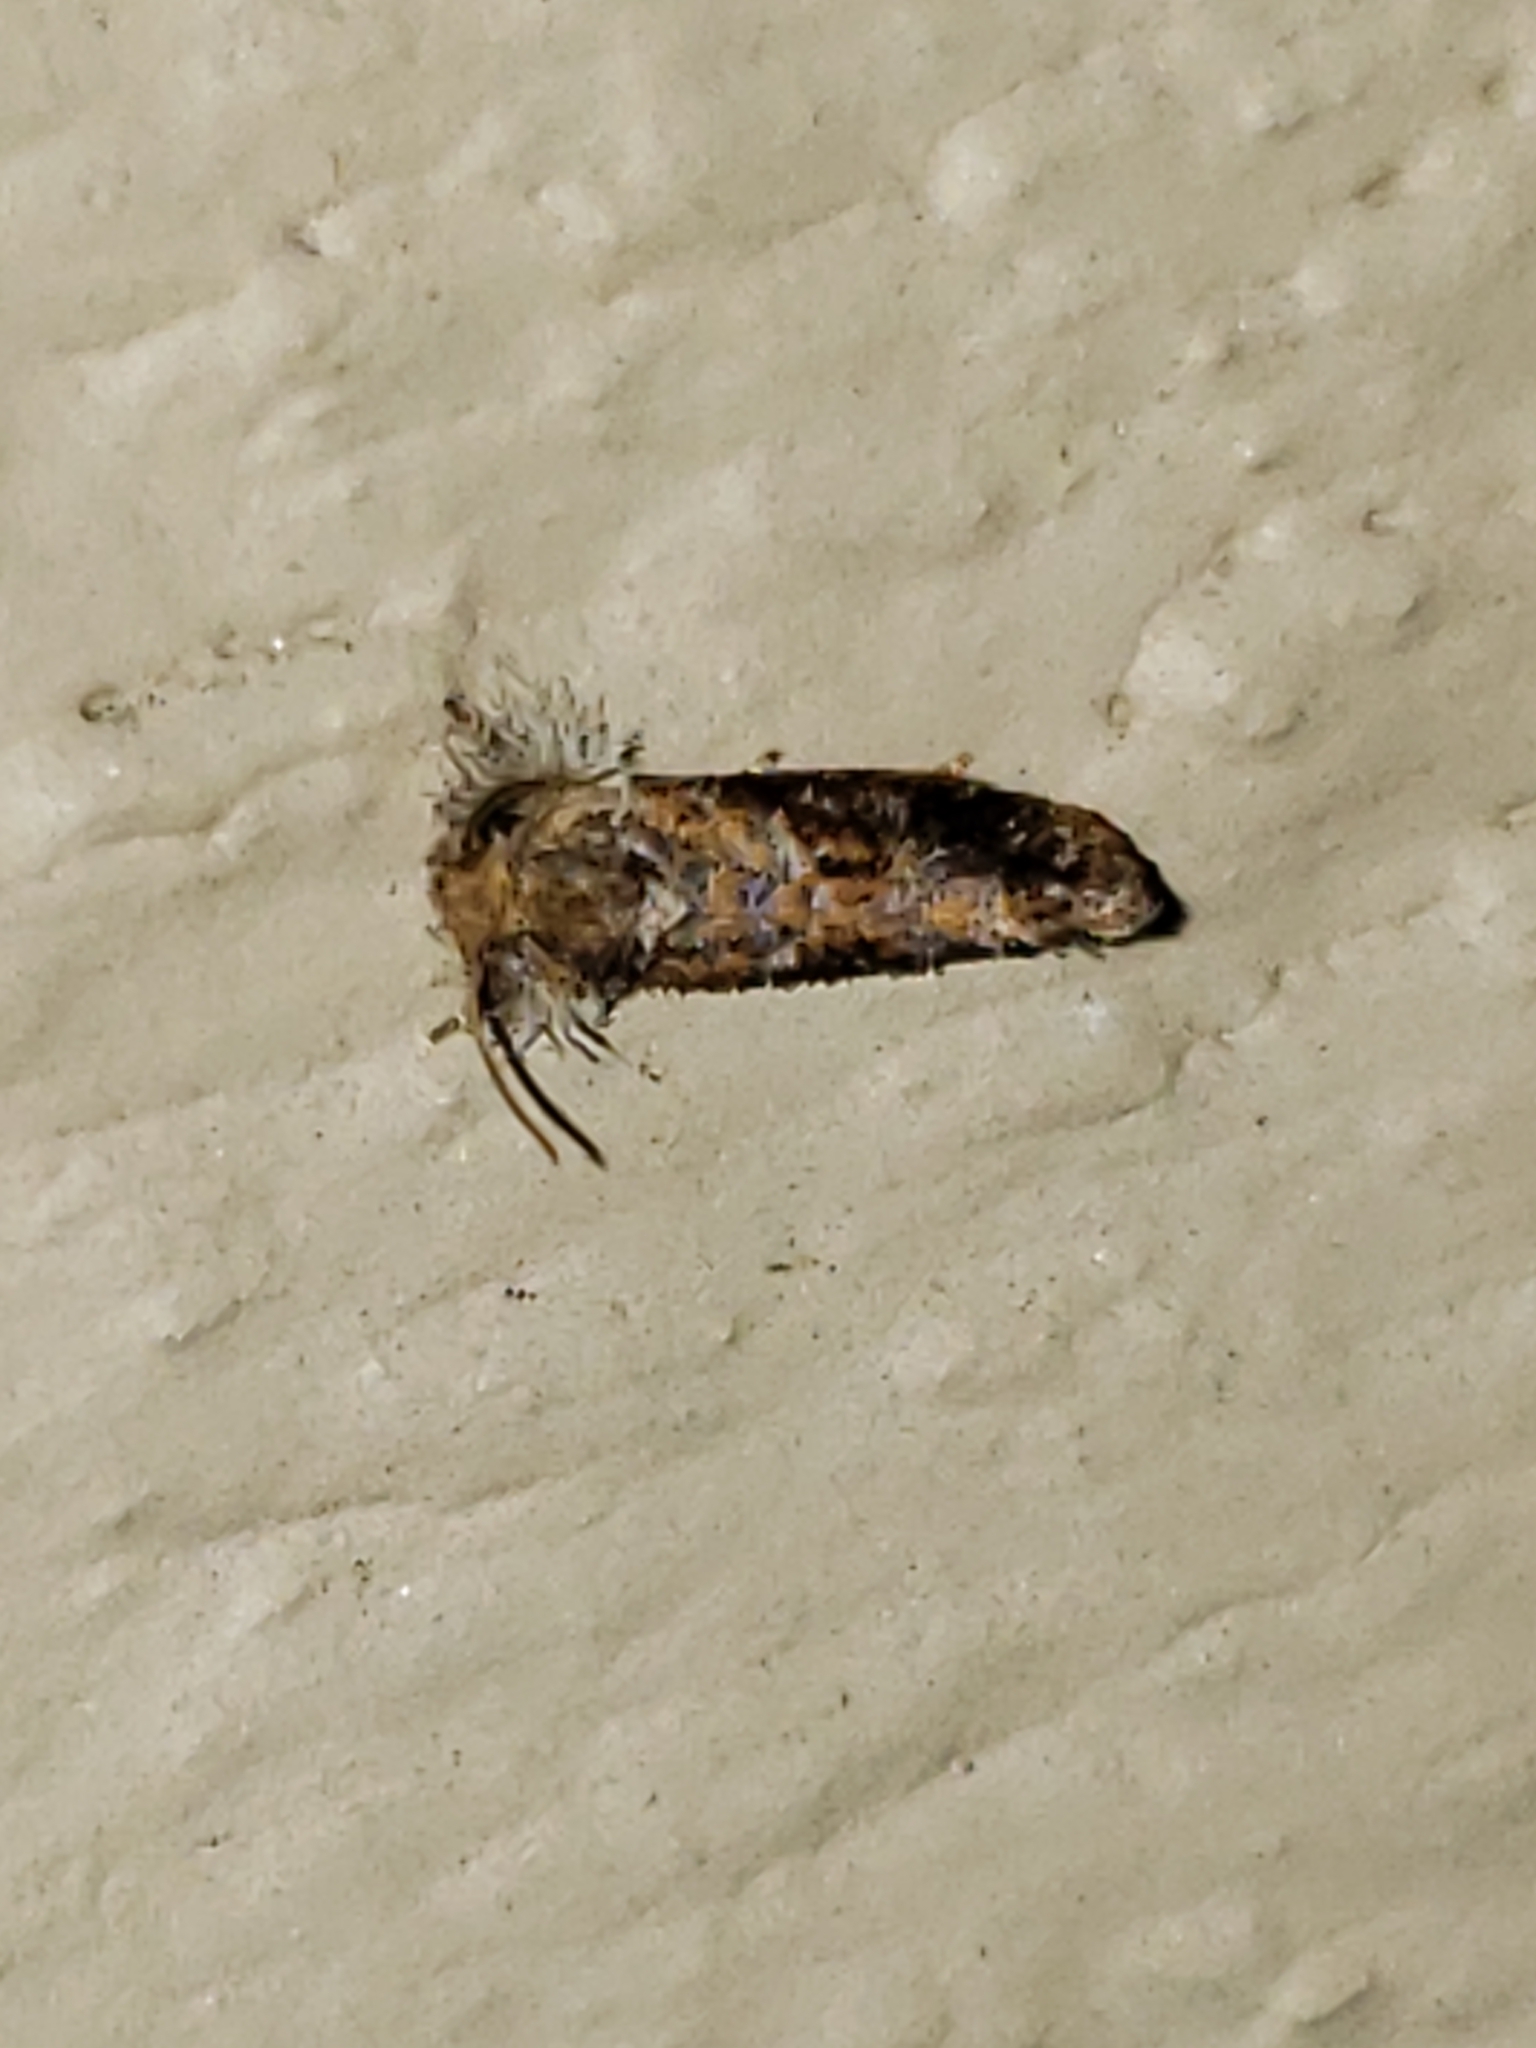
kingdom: Animalia
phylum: Arthropoda
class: Insecta
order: Lepidoptera
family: Tineidae
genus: Acrolophus
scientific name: Acrolophus panamae
